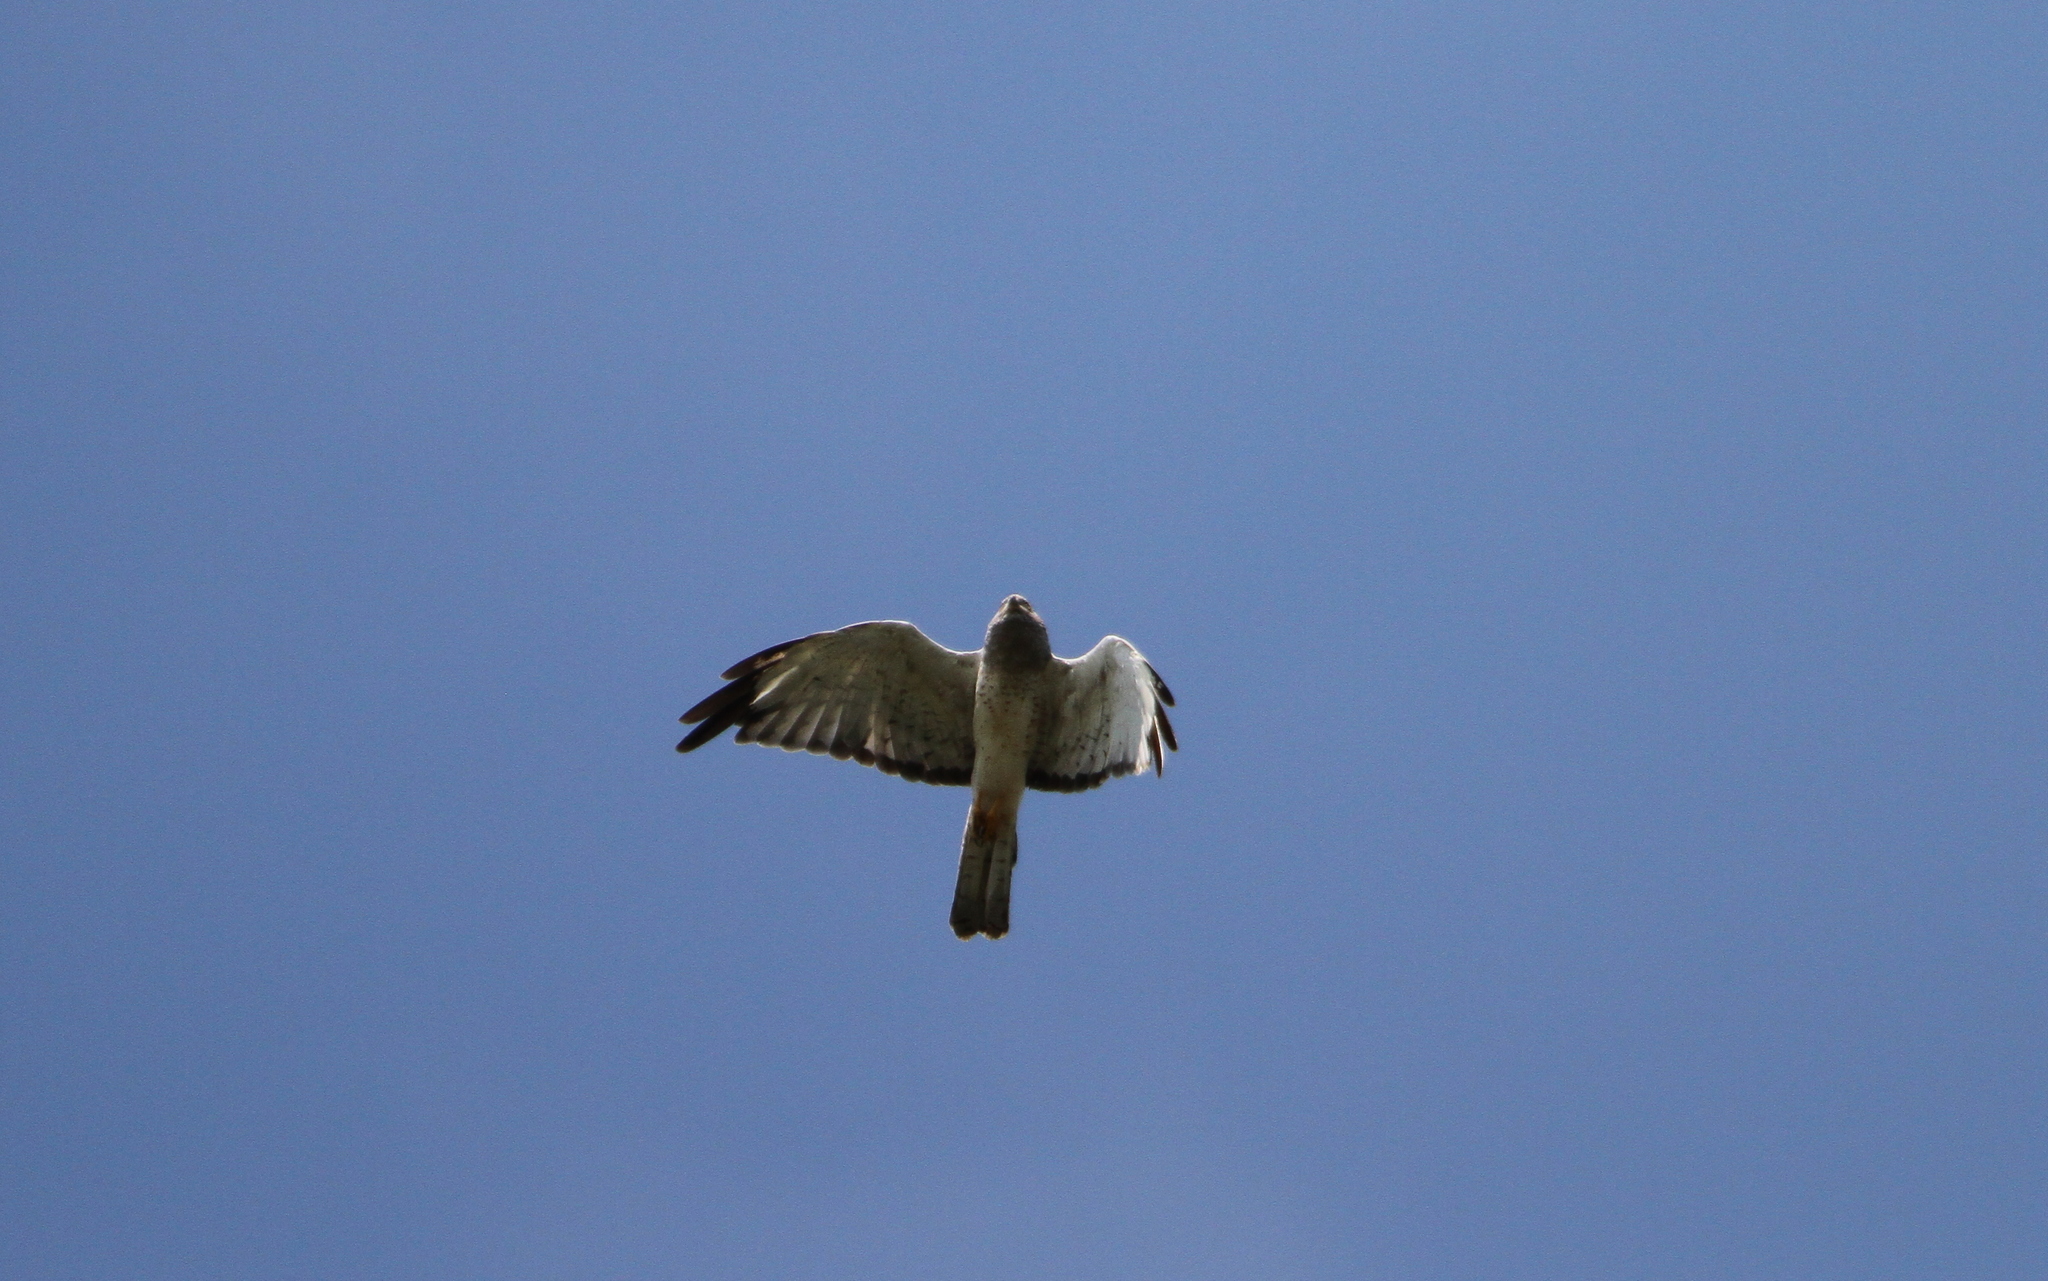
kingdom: Animalia
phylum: Chordata
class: Aves
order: Accipitriformes
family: Accipitridae
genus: Circus
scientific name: Circus cyaneus
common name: Hen harrier
